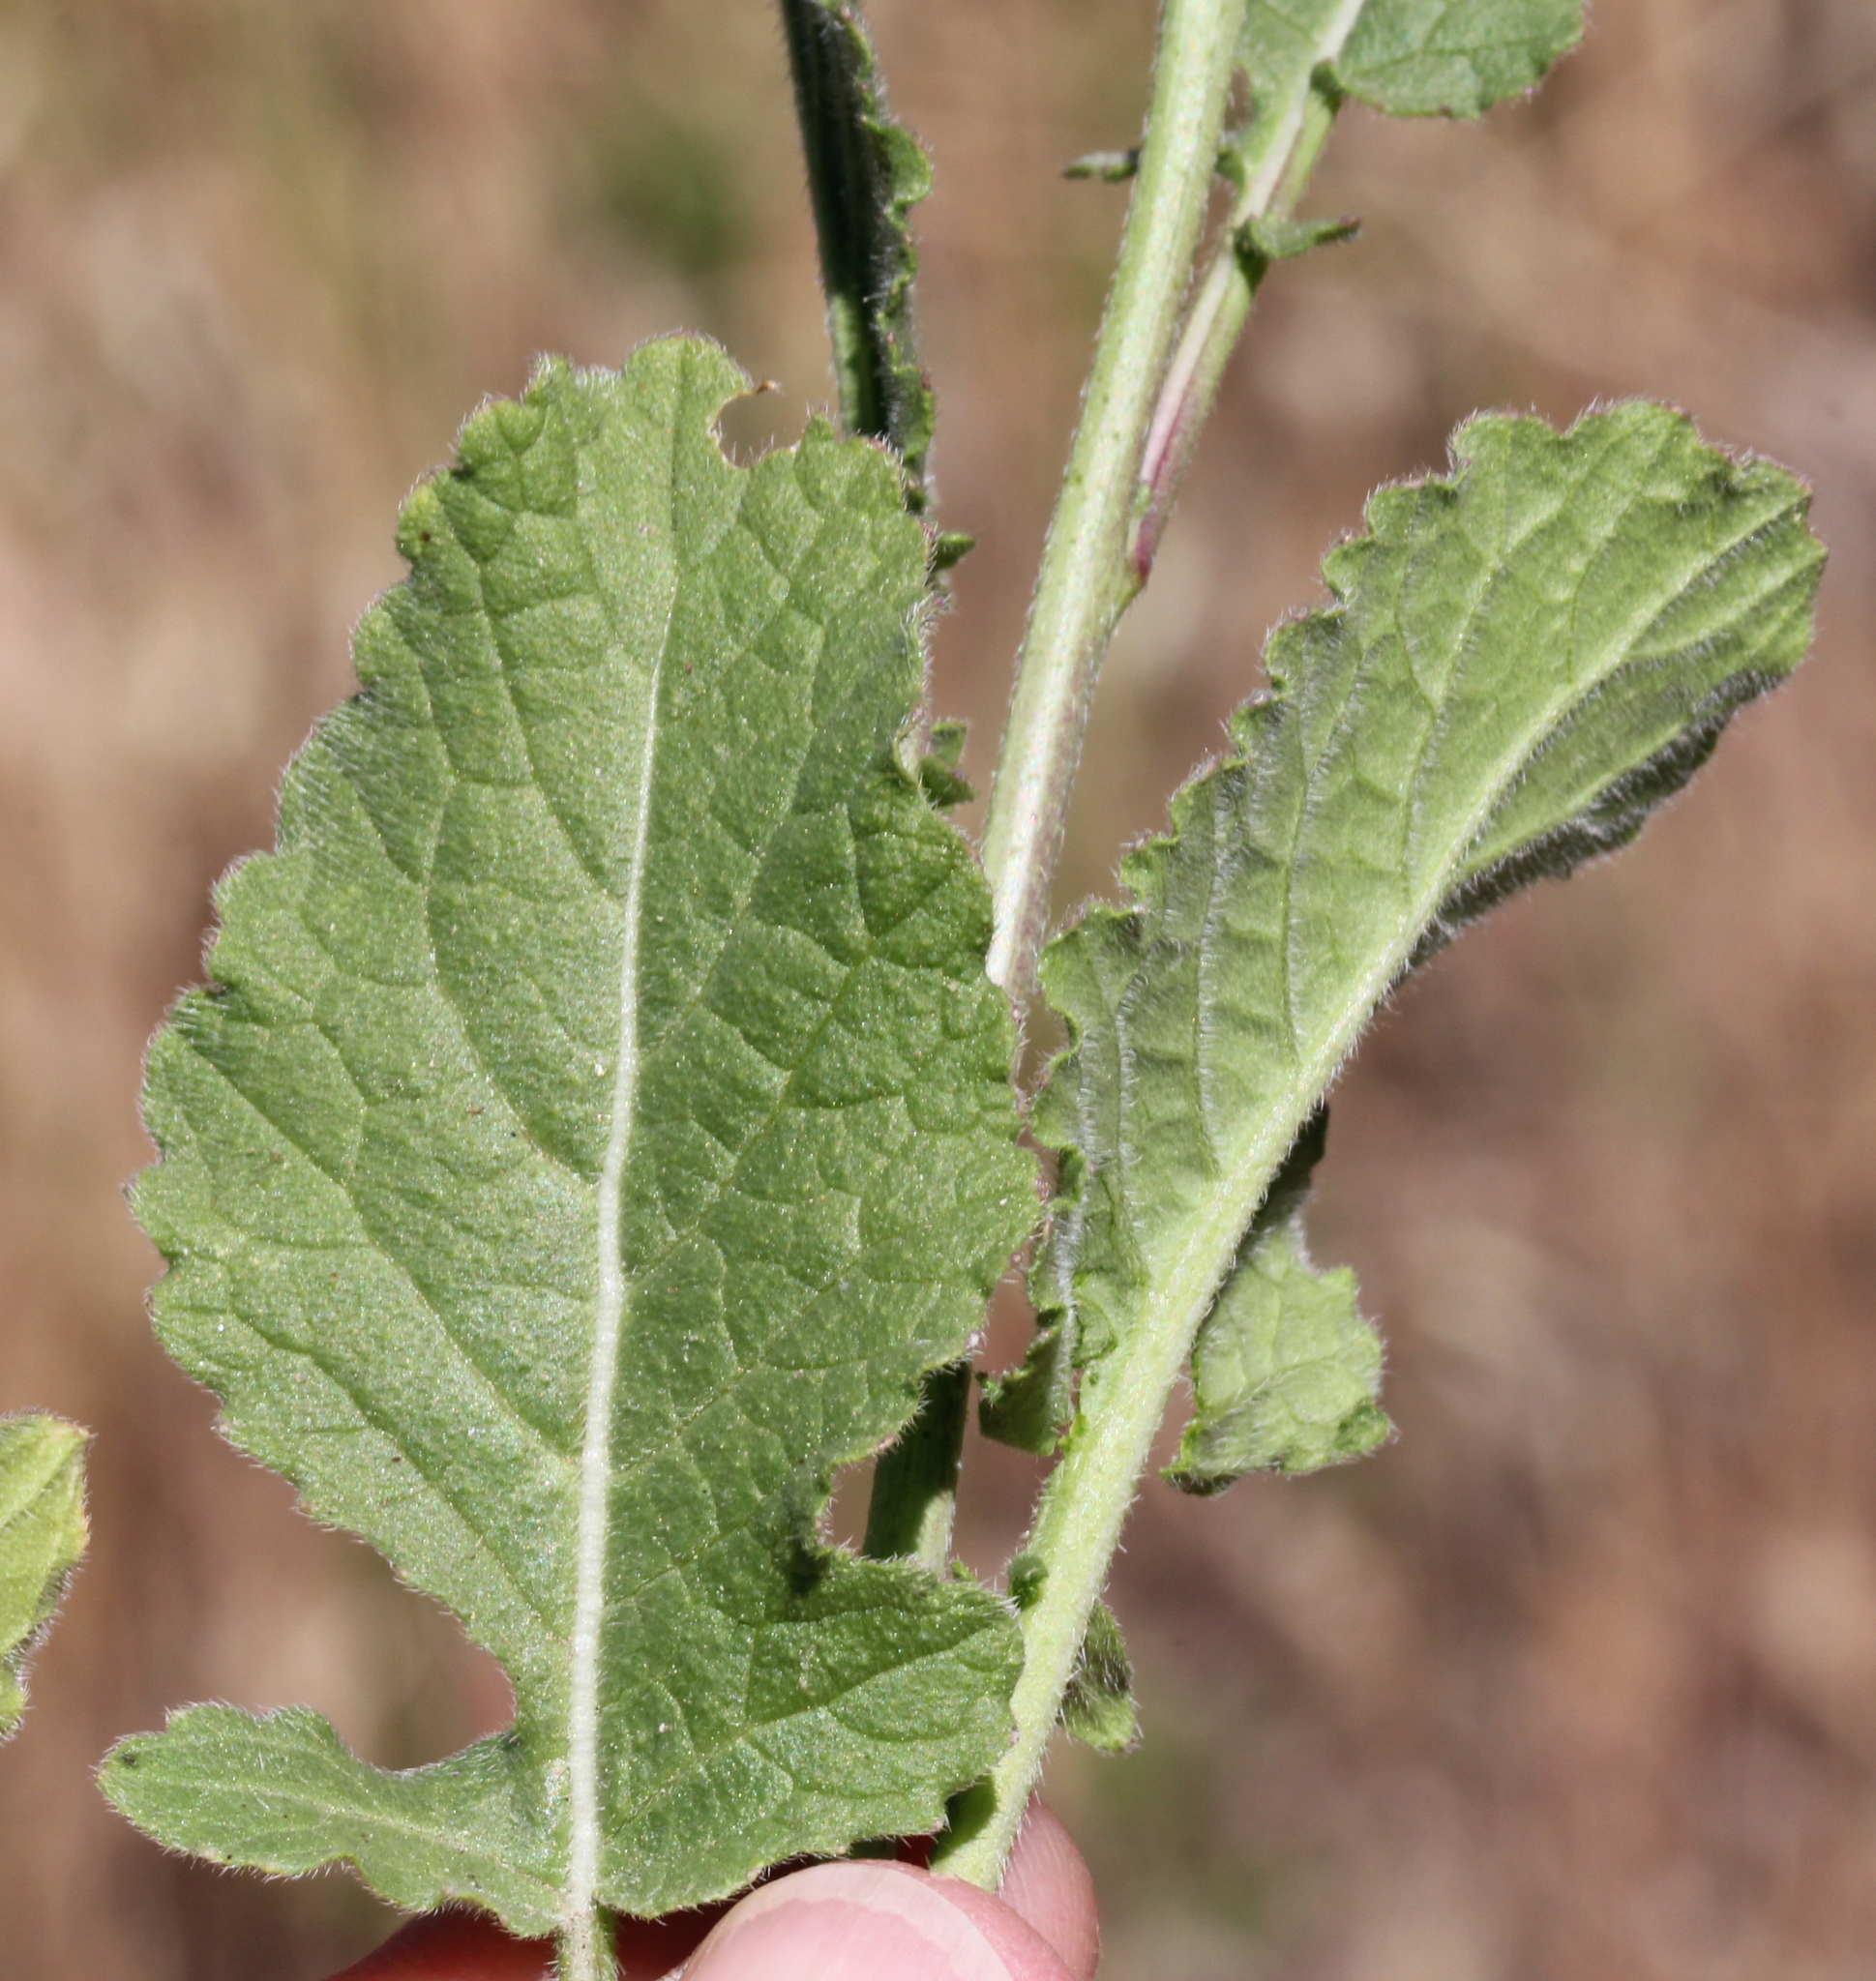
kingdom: Plantae
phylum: Tracheophyta
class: Magnoliopsida
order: Brassicales
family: Brassicaceae
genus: Hirschfeldia
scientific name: Hirschfeldia incana
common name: Hoary mustard
